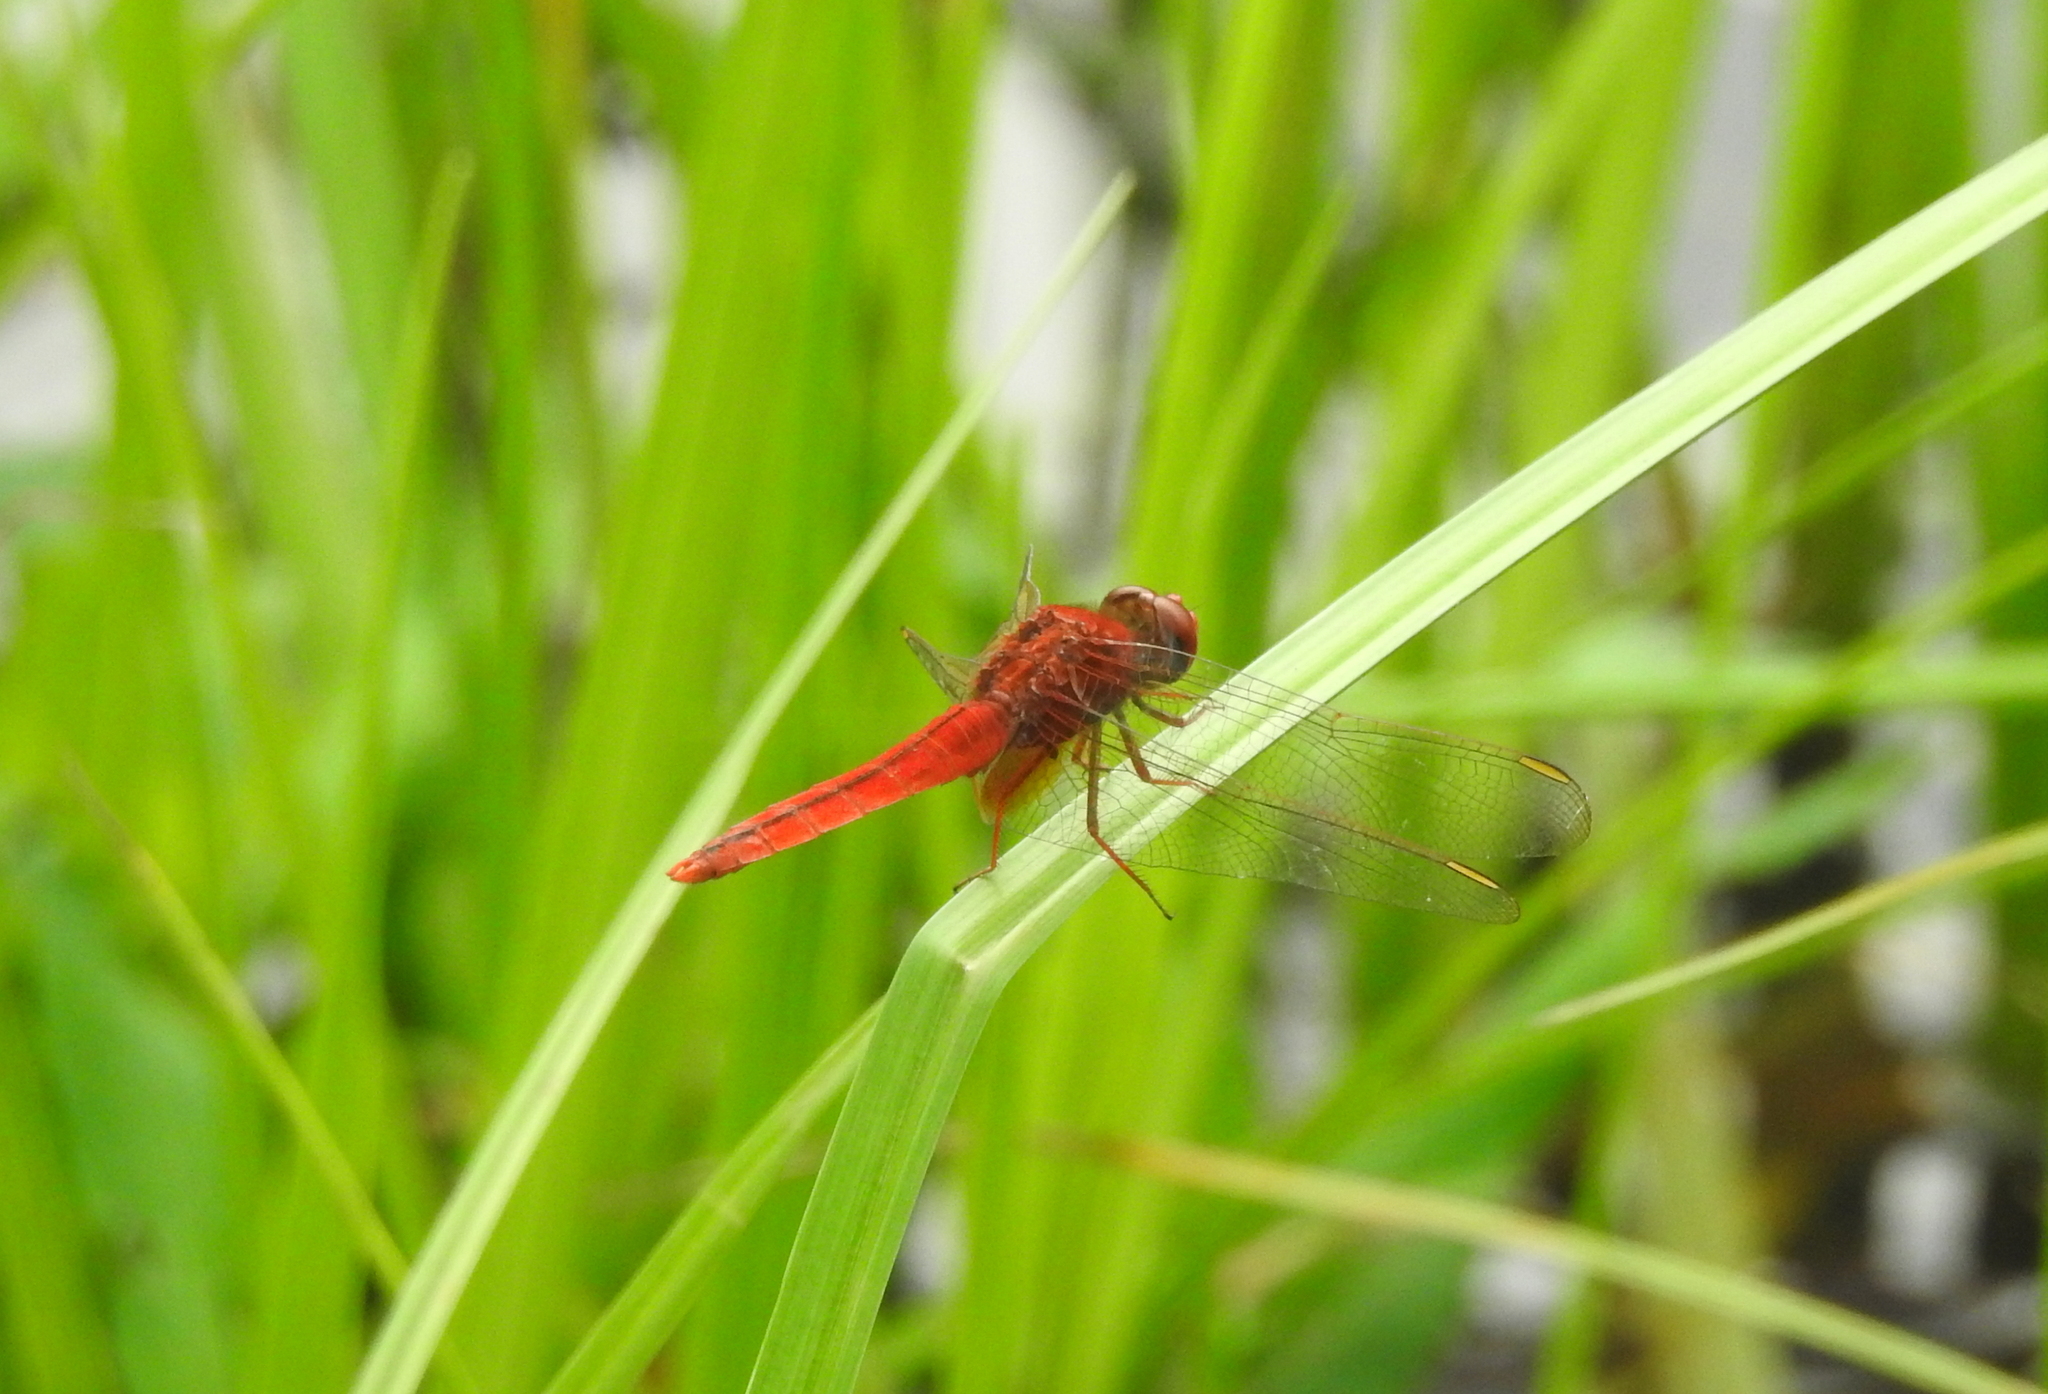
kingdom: Animalia
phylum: Arthropoda
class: Insecta
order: Odonata
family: Libellulidae
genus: Crocothemis
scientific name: Crocothemis servilia
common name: Scarlet skimmer
